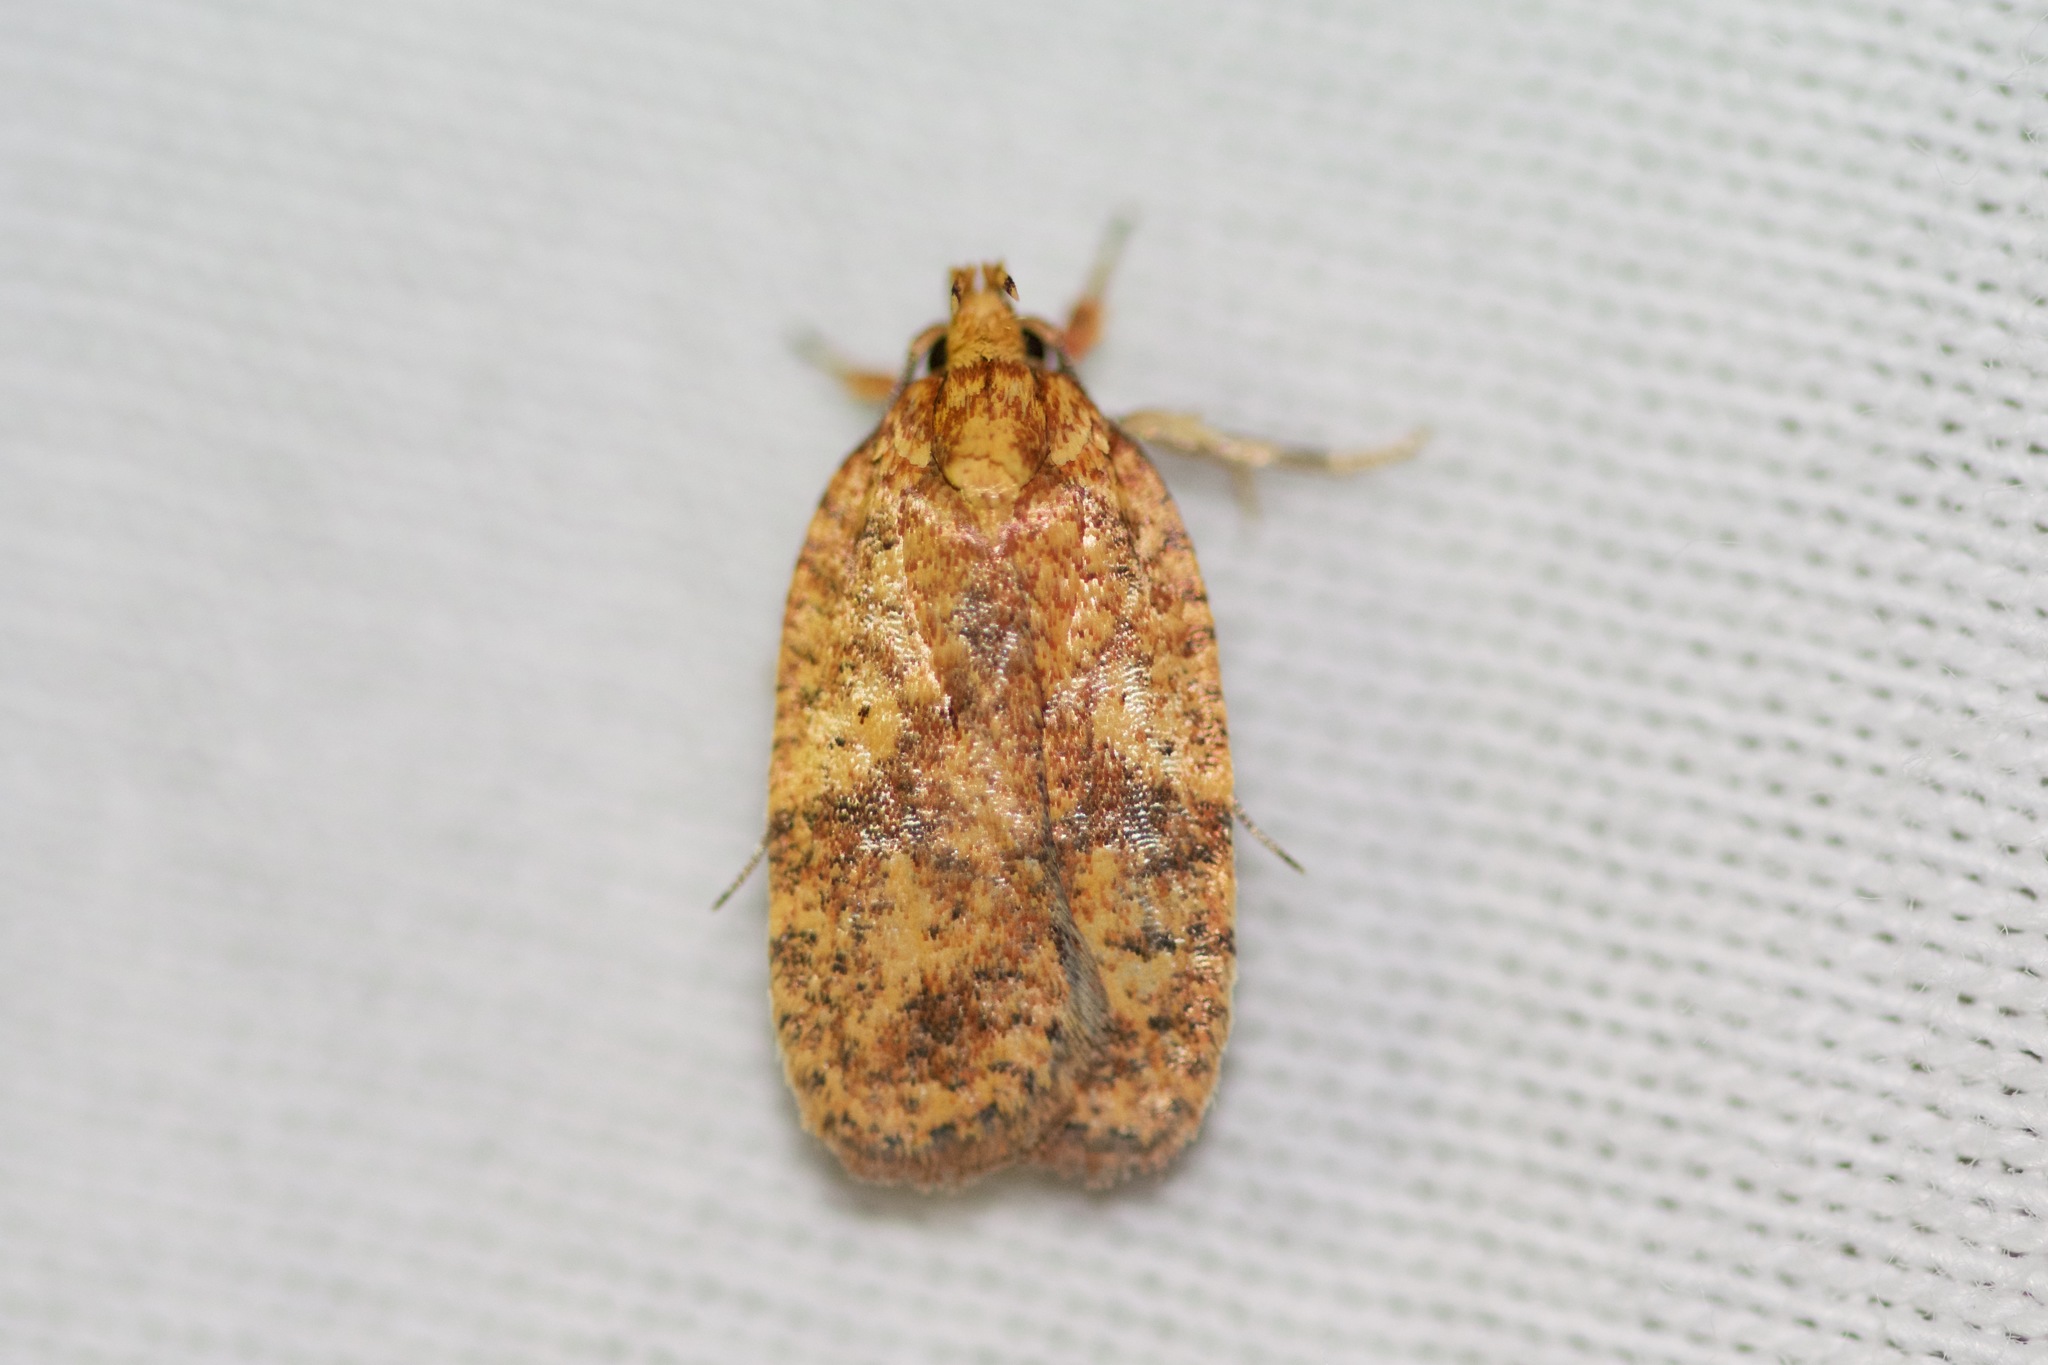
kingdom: Animalia
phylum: Arthropoda
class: Insecta
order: Lepidoptera
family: Depressariidae
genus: Agonopterix
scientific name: Agonopterix robiniella
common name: Four-dotted agonopterix moth
